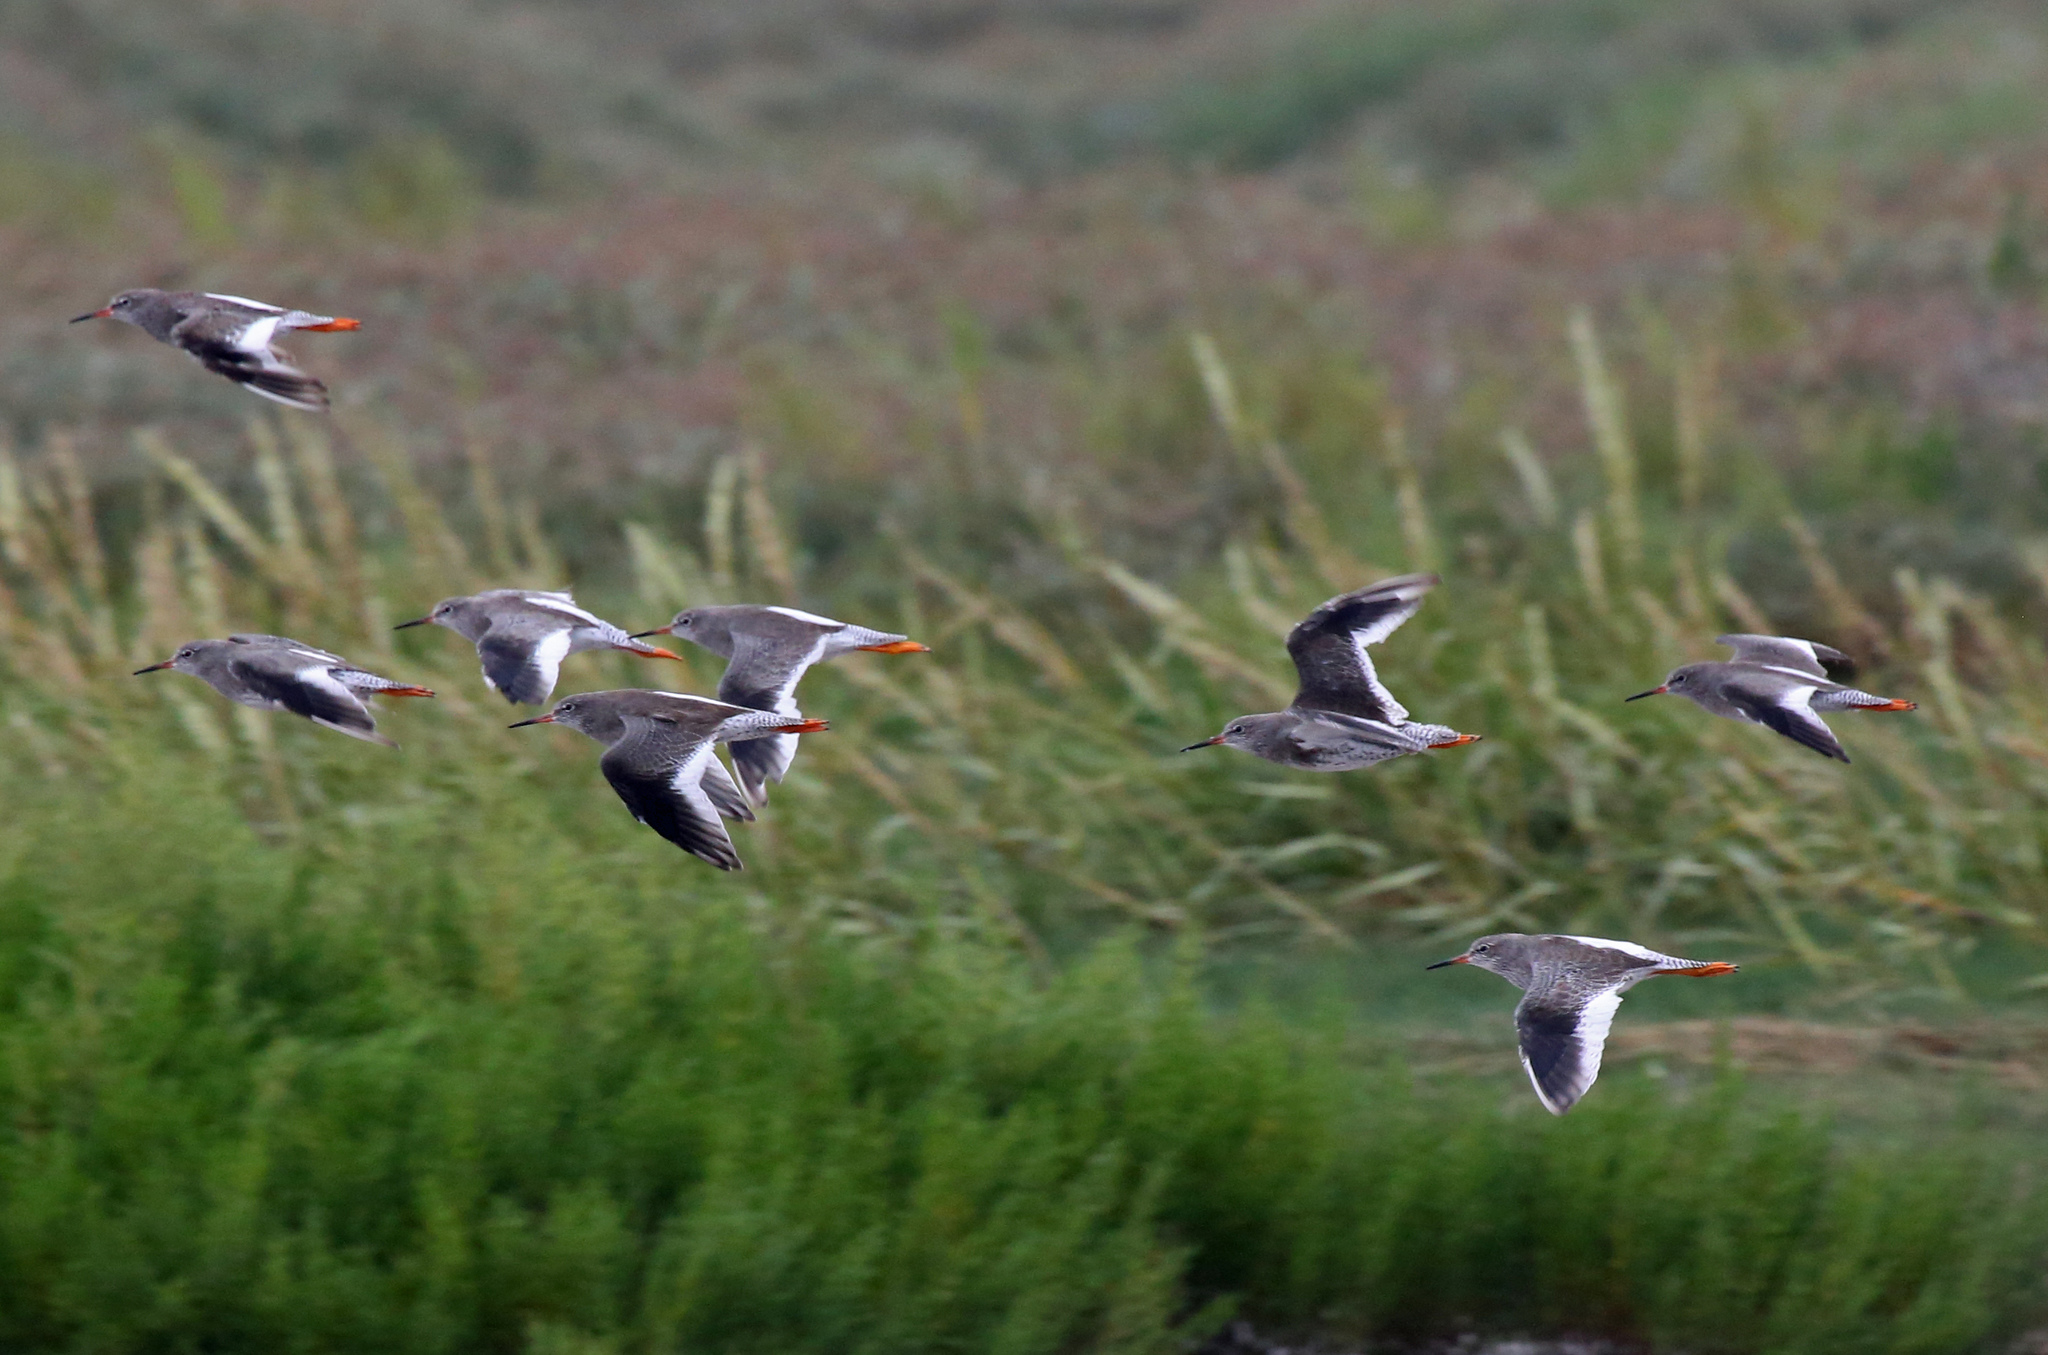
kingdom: Animalia
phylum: Chordata
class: Aves
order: Charadriiformes
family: Scolopacidae
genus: Tringa
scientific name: Tringa totanus
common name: Common redshank
